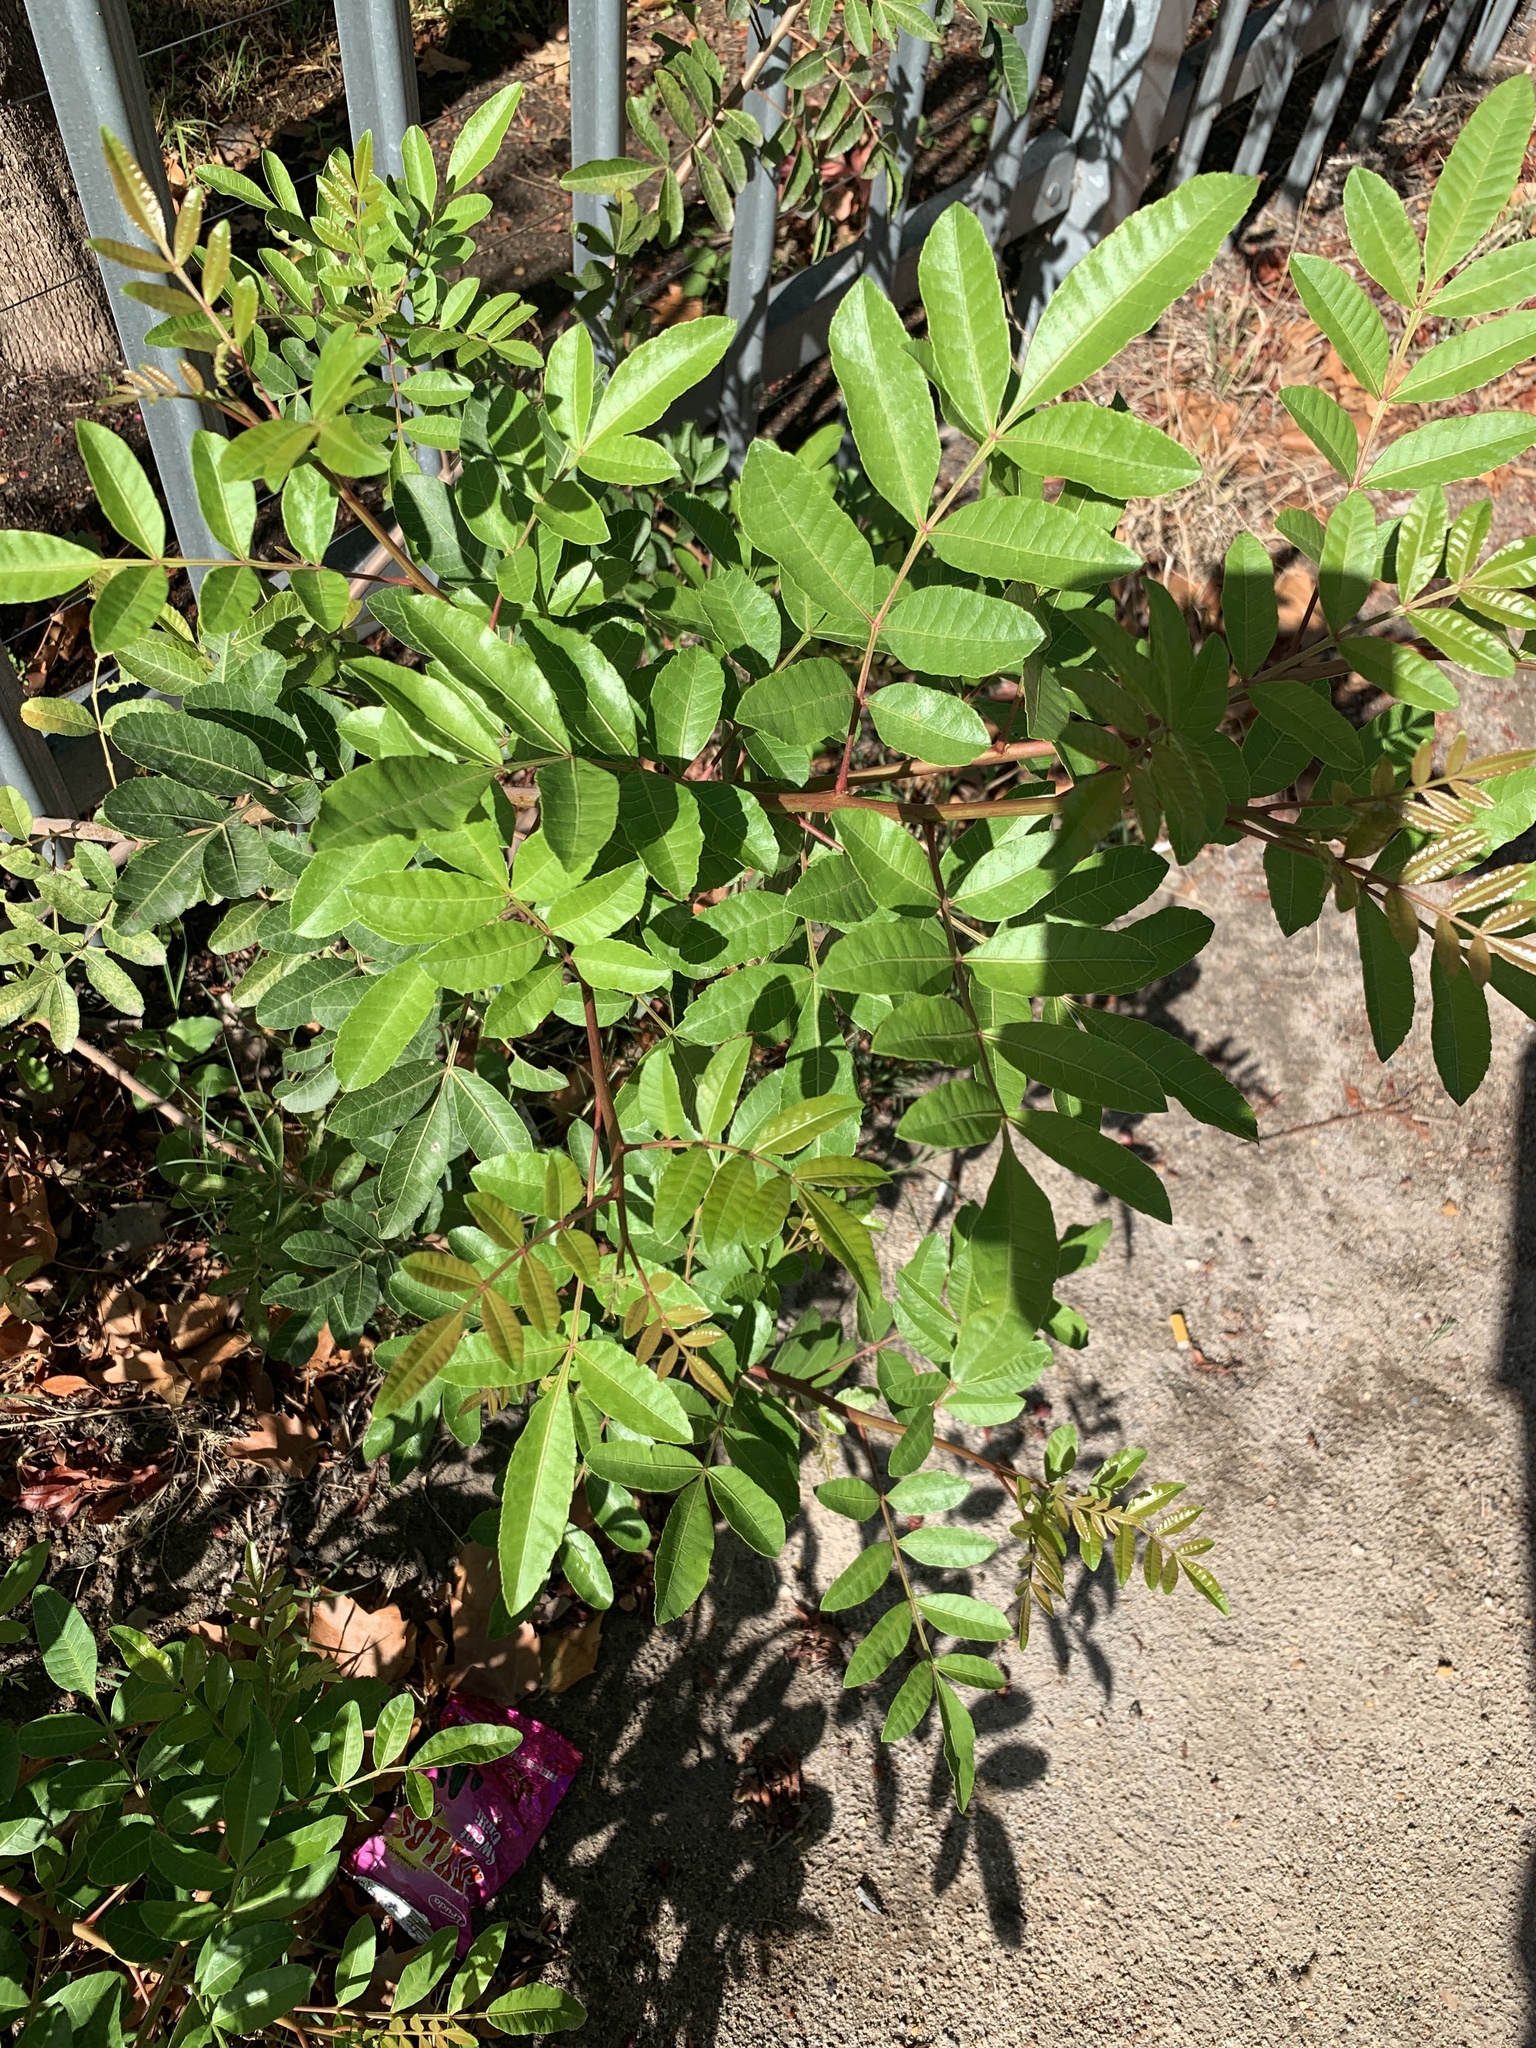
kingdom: Plantae
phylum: Tracheophyta
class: Magnoliopsida
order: Sapindales
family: Anacardiaceae
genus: Schinus
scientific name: Schinus terebinthifolia
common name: Brazilian peppertree
